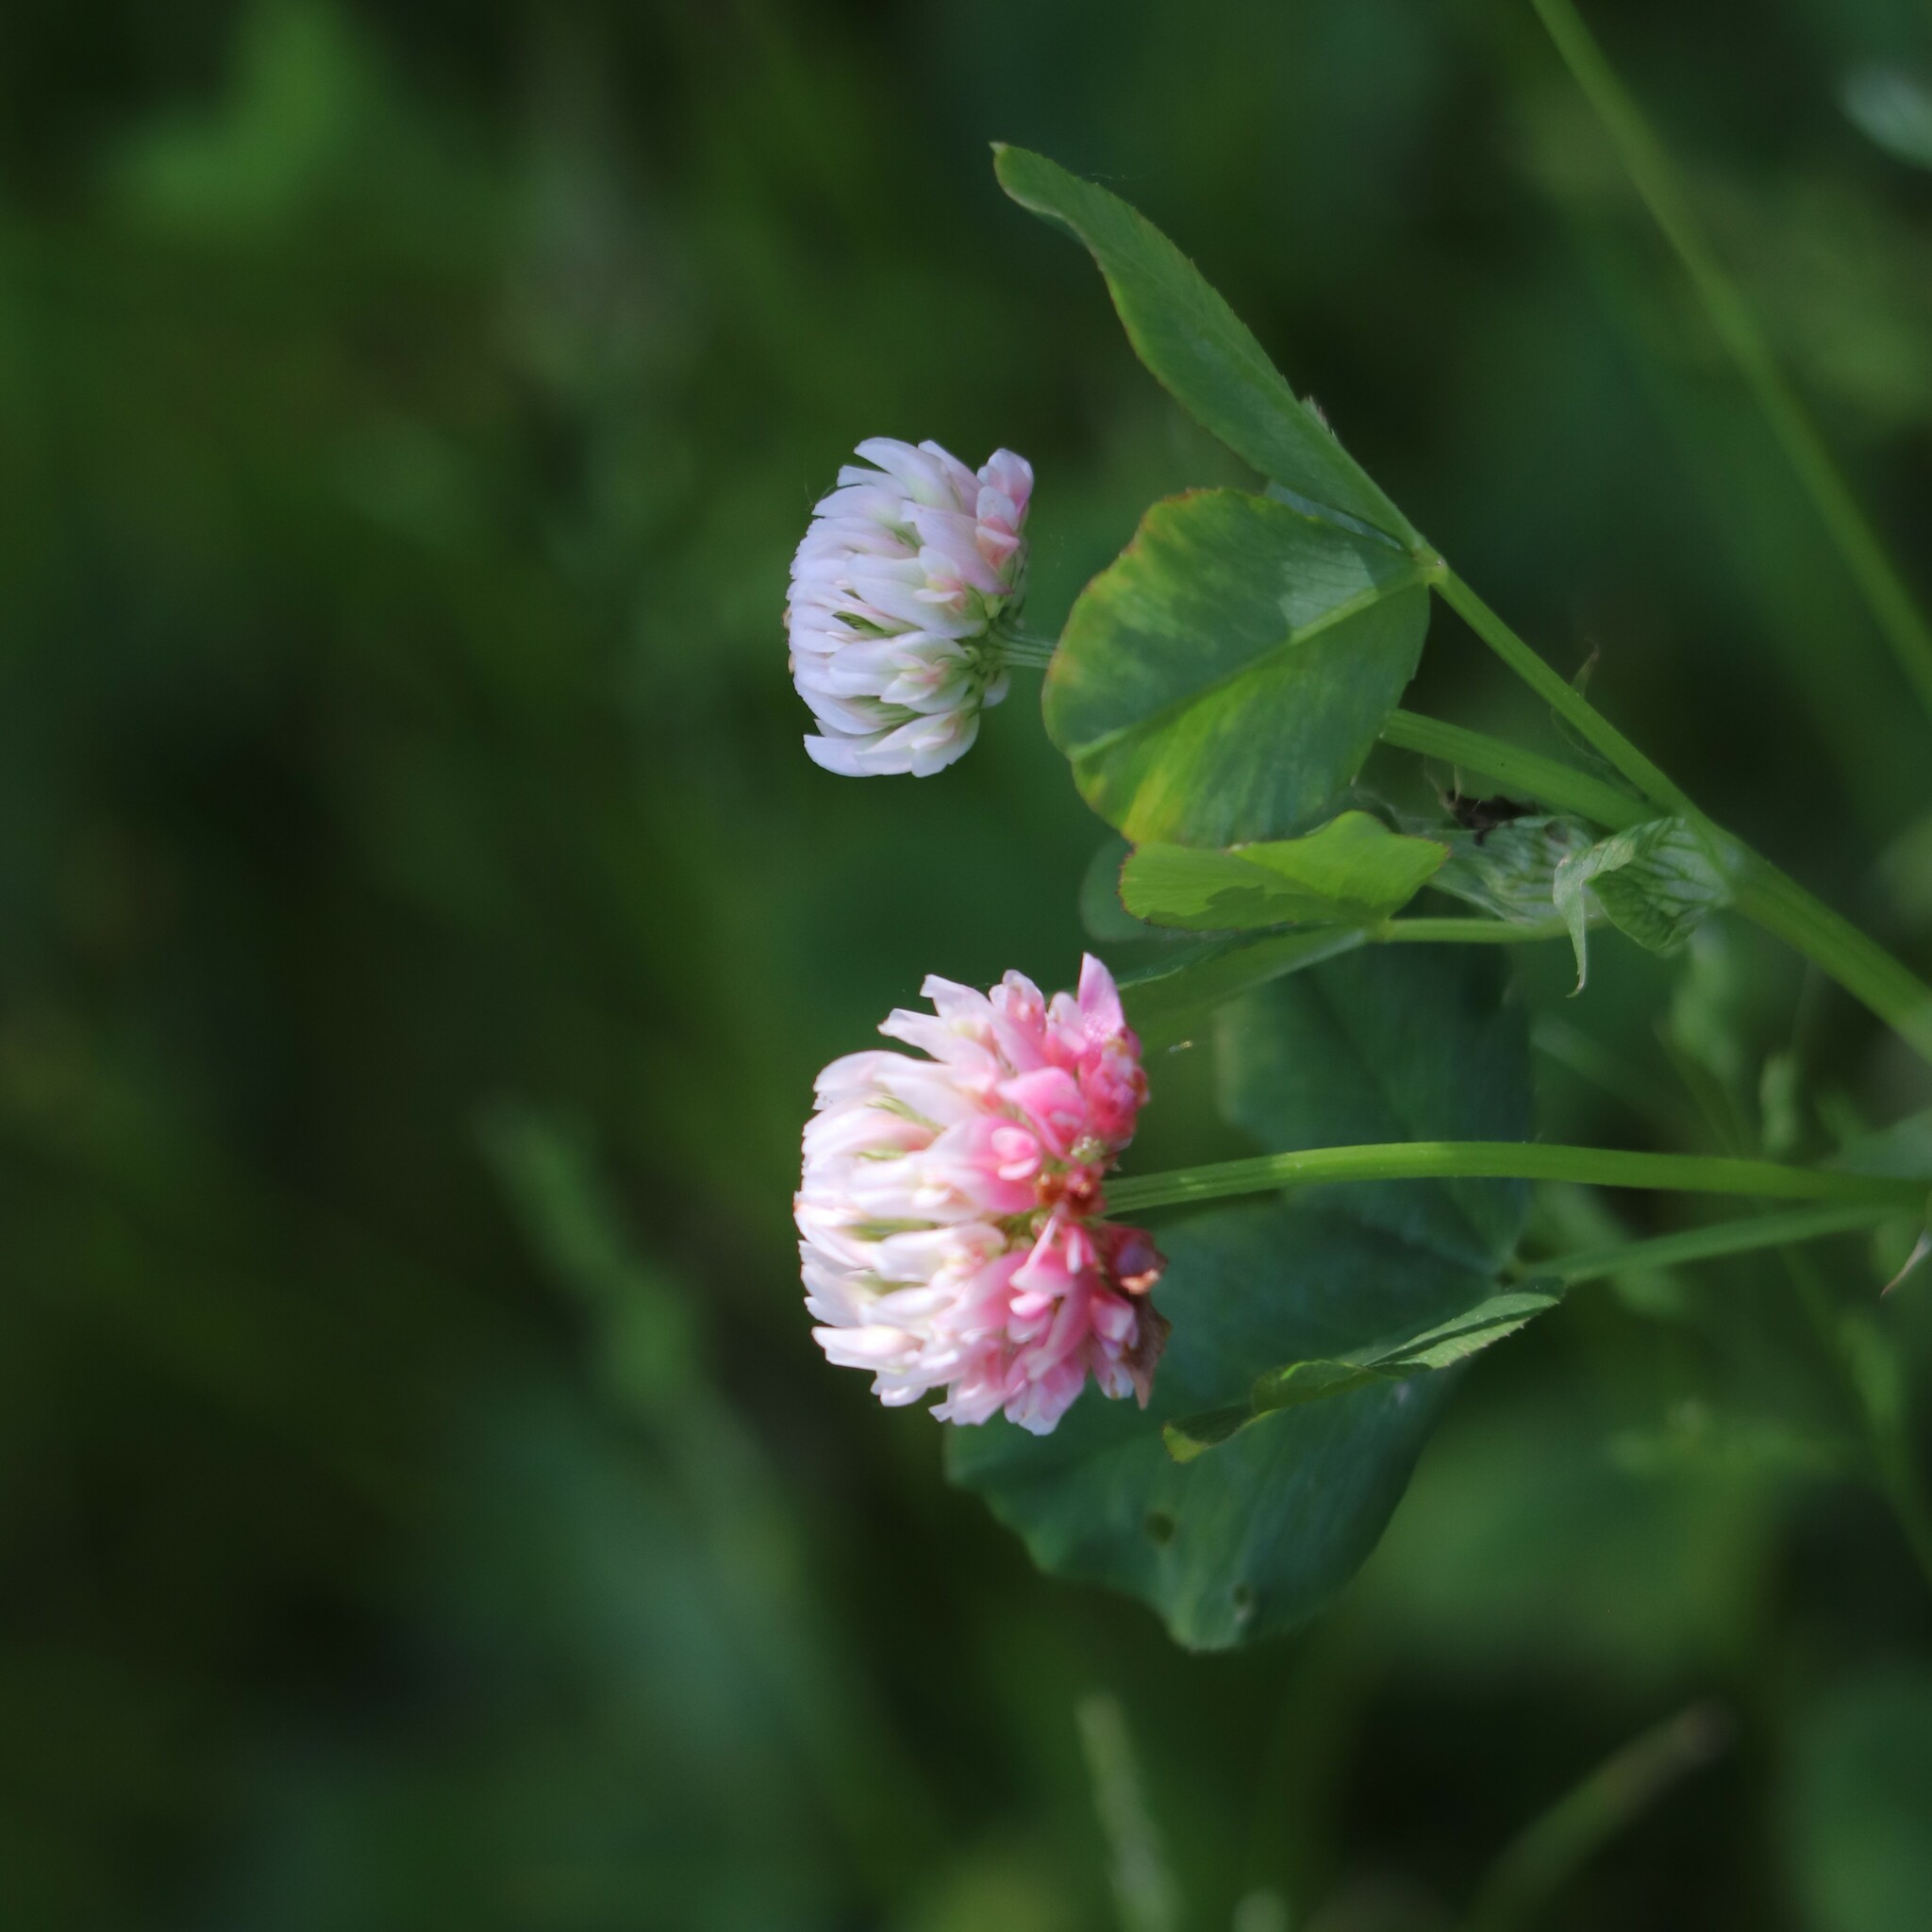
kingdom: Plantae
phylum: Tracheophyta
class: Magnoliopsida
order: Fabales
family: Fabaceae
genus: Trifolium
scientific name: Trifolium hybridum
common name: Alsike clover
